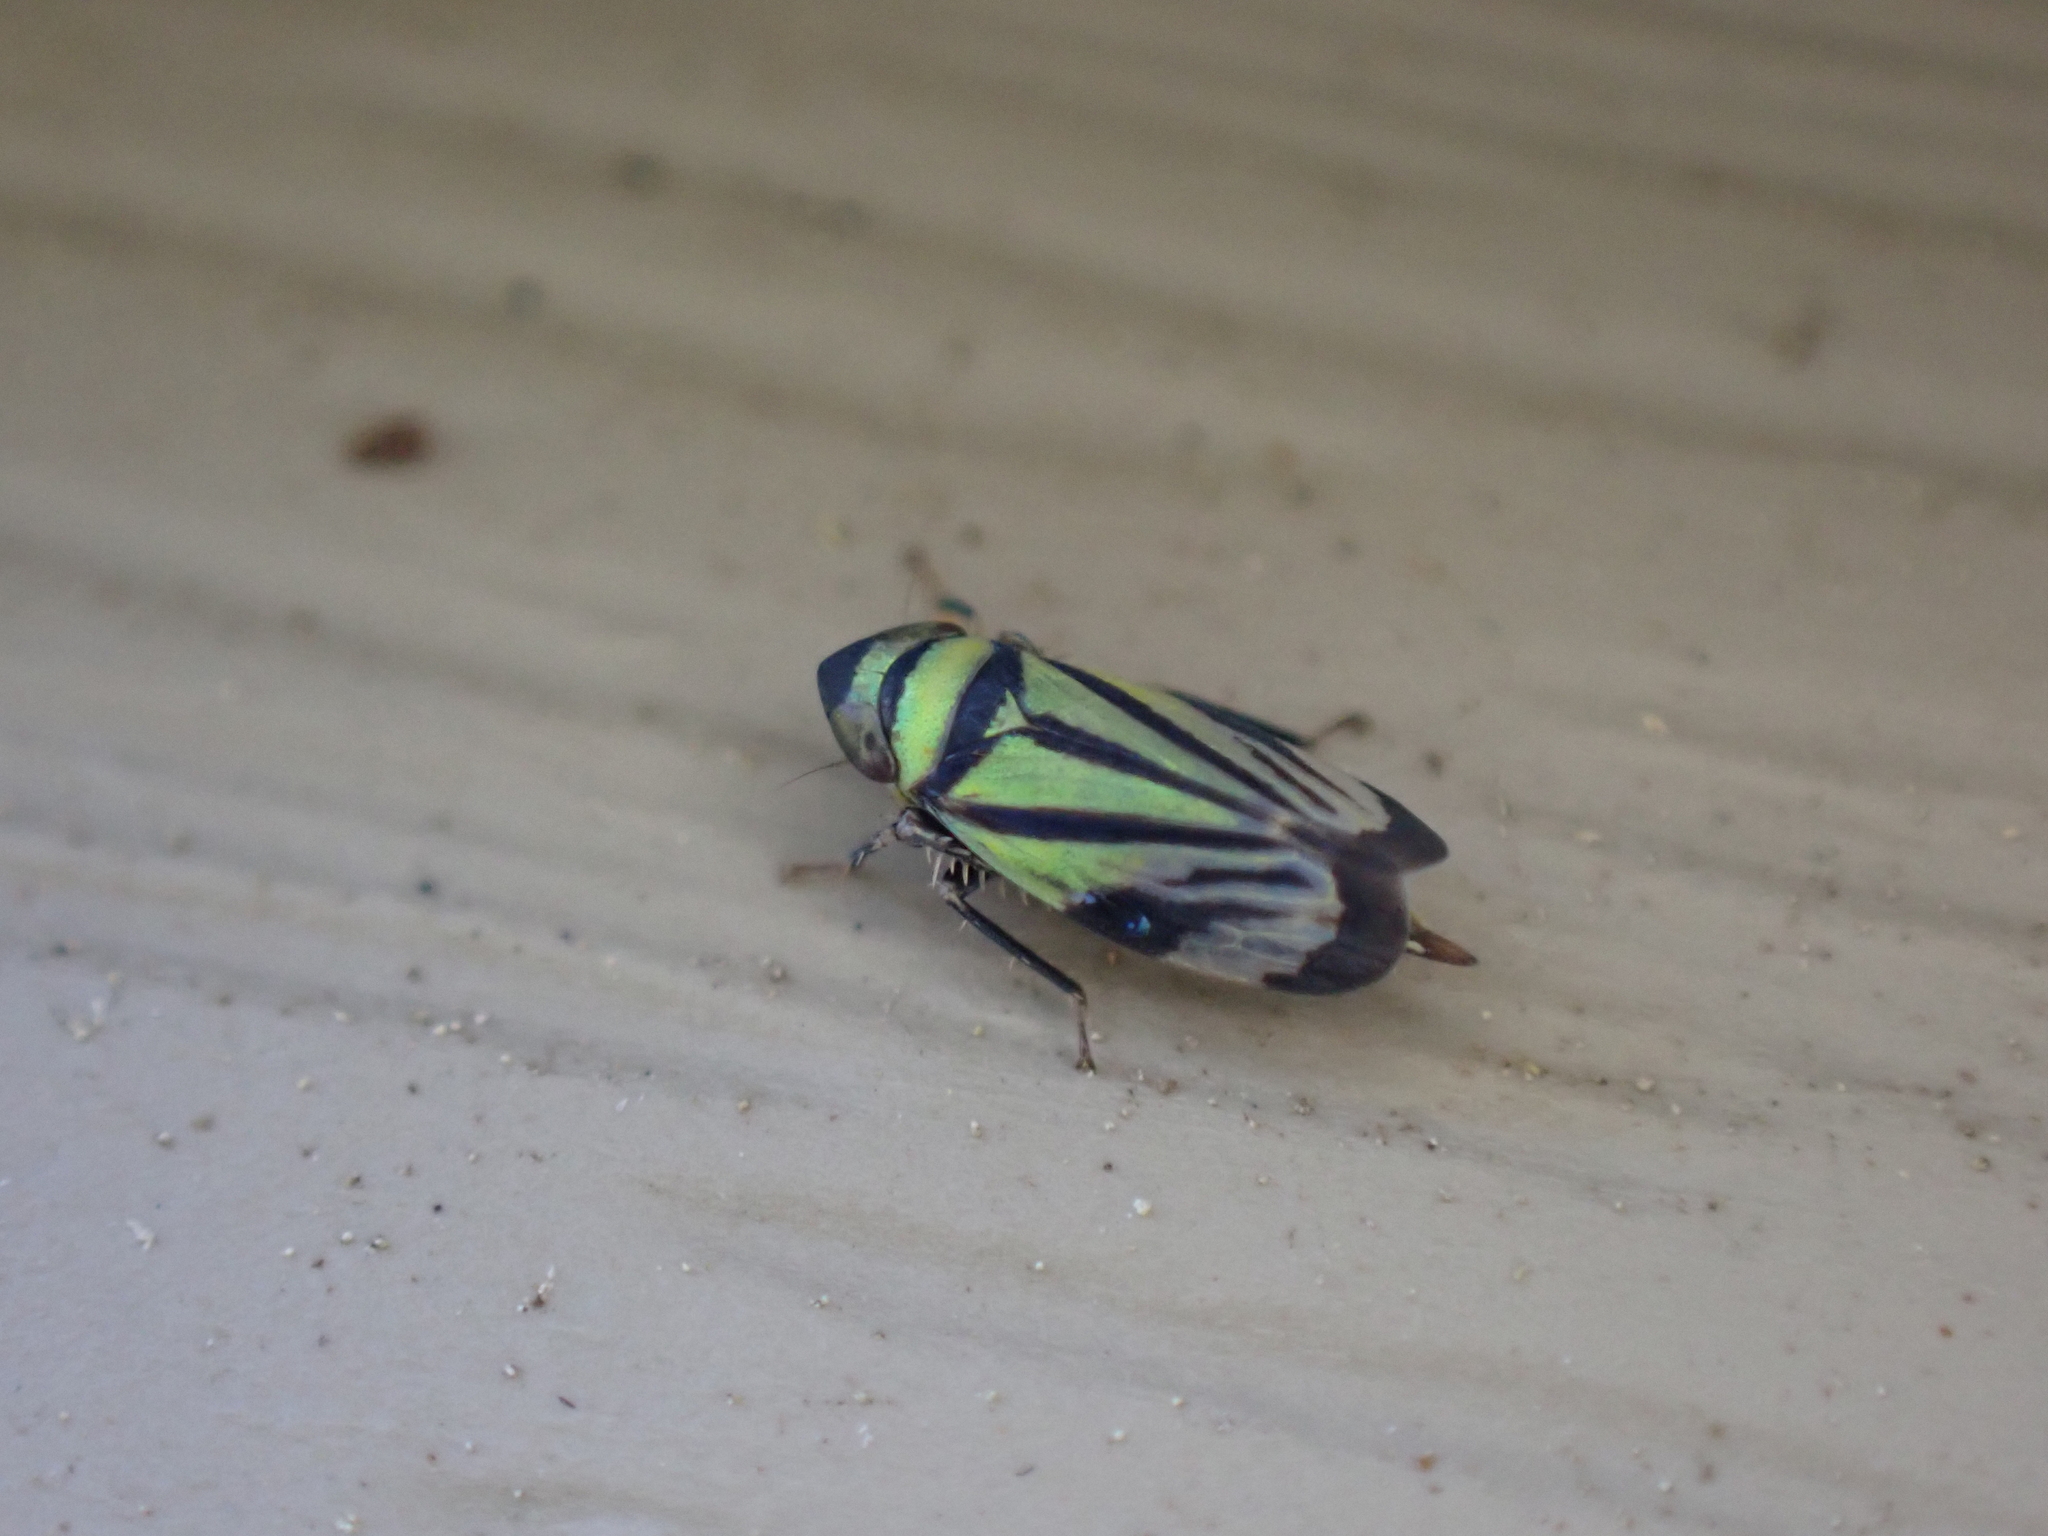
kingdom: Animalia
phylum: Arthropoda
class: Insecta
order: Hemiptera
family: Cicadellidae
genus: Stirellus
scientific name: Stirellus bicolor
